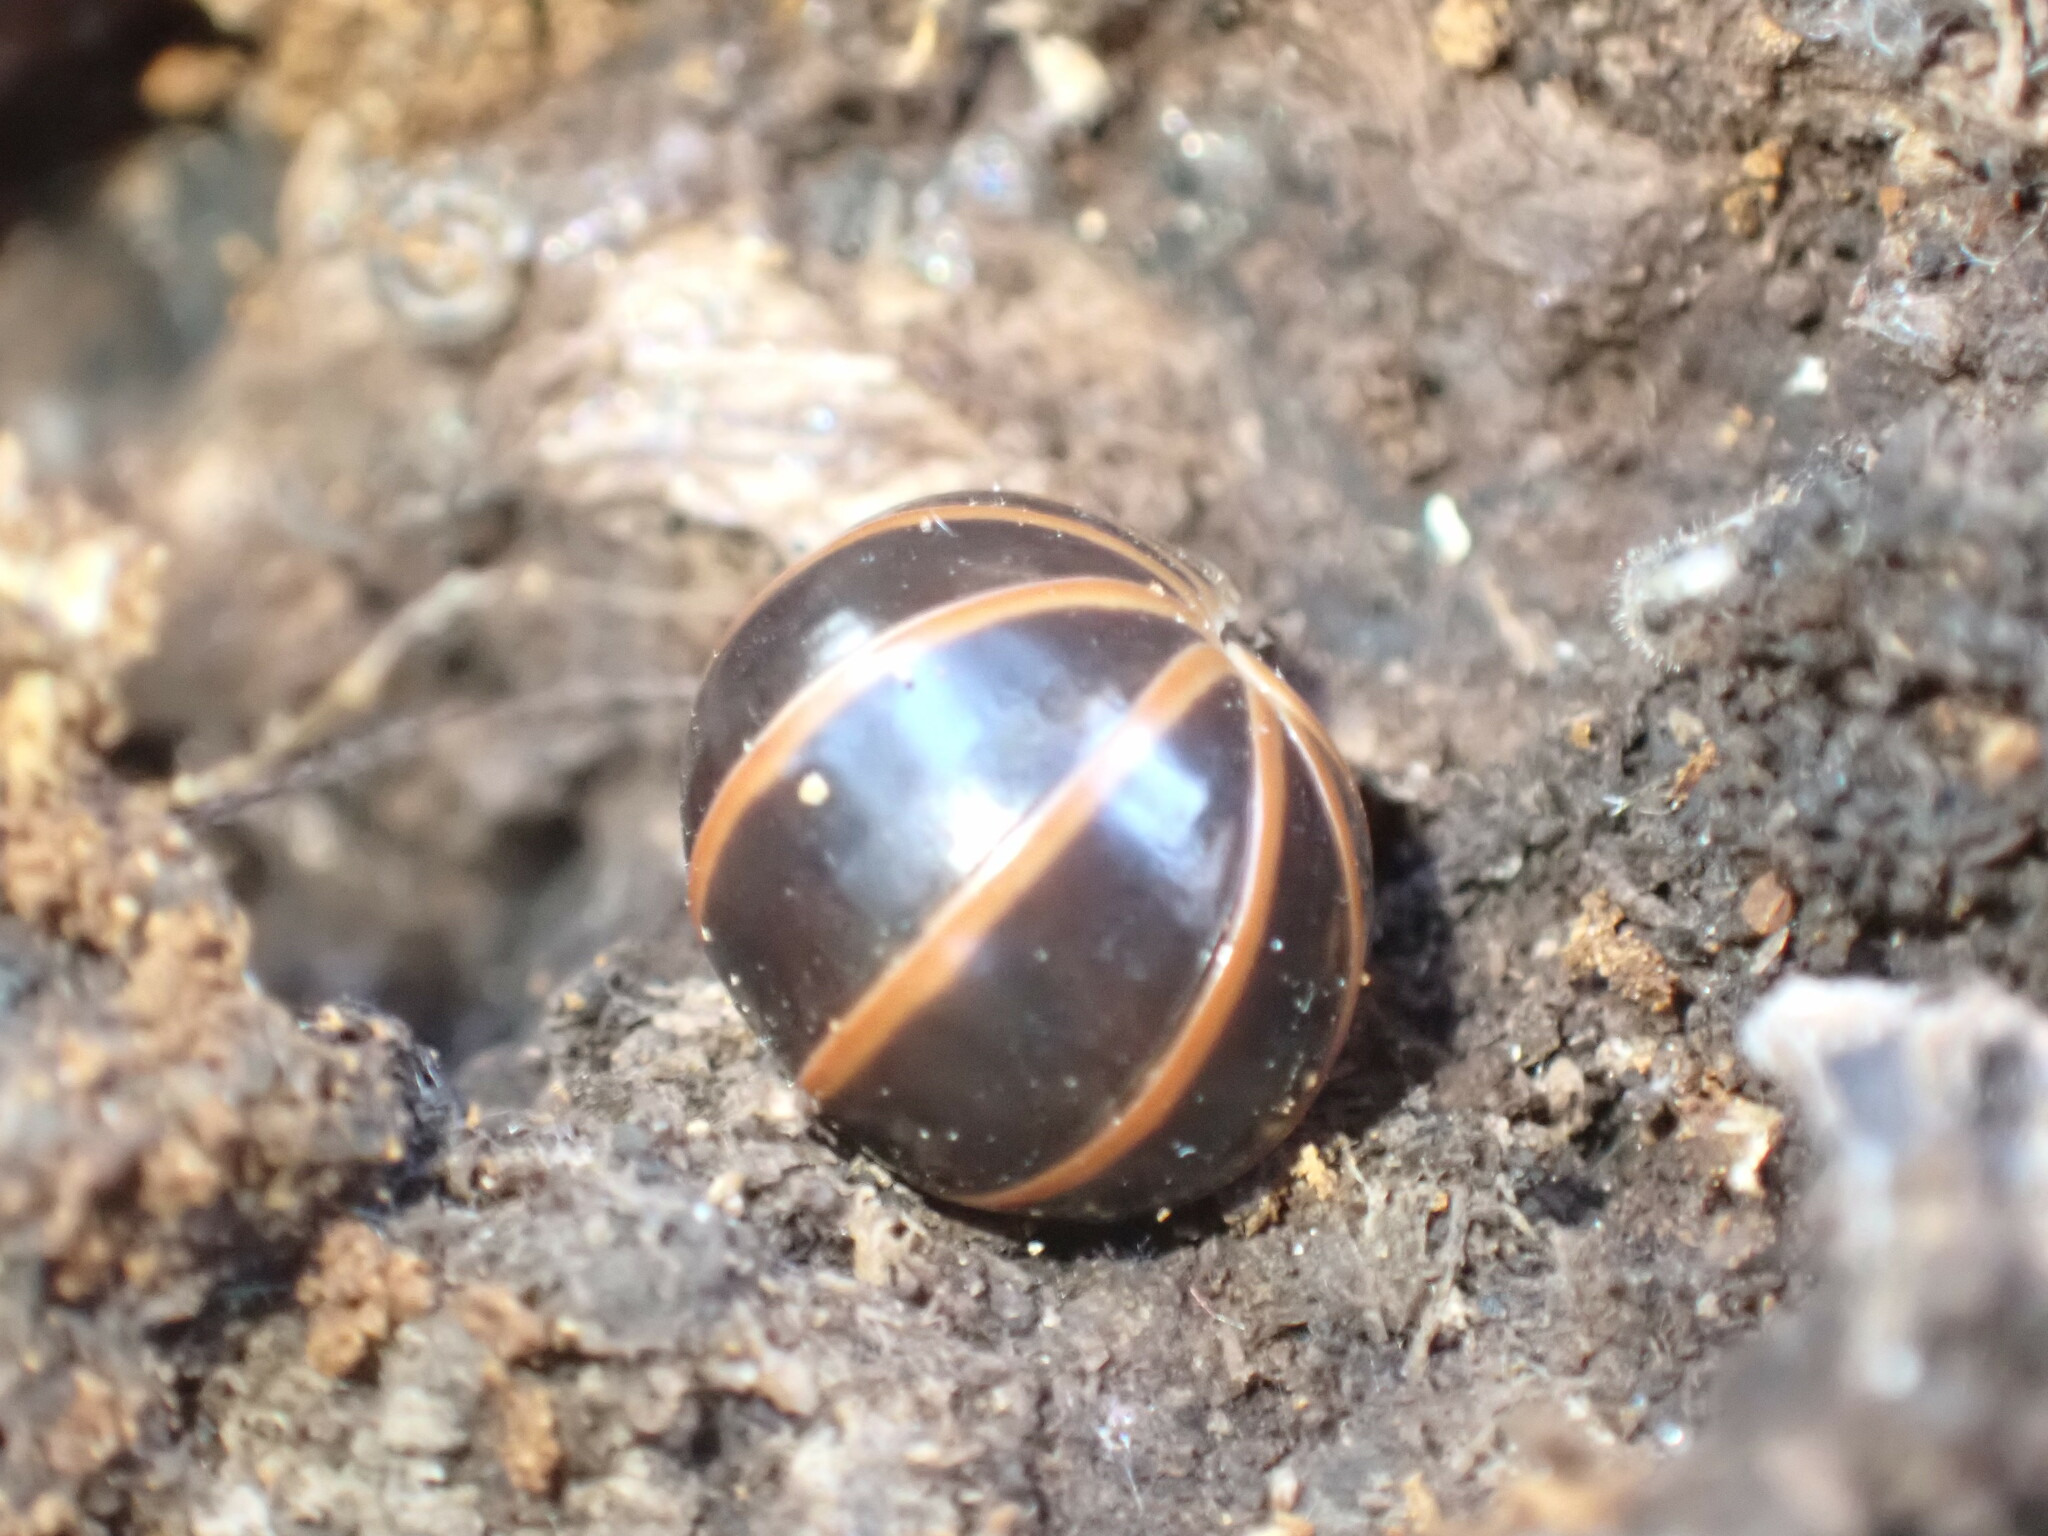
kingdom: Animalia
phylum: Arthropoda
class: Diplopoda
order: Glomerida
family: Glomeridae
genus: Glomeris
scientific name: Glomeris marginata
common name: Bordered pill millipede
